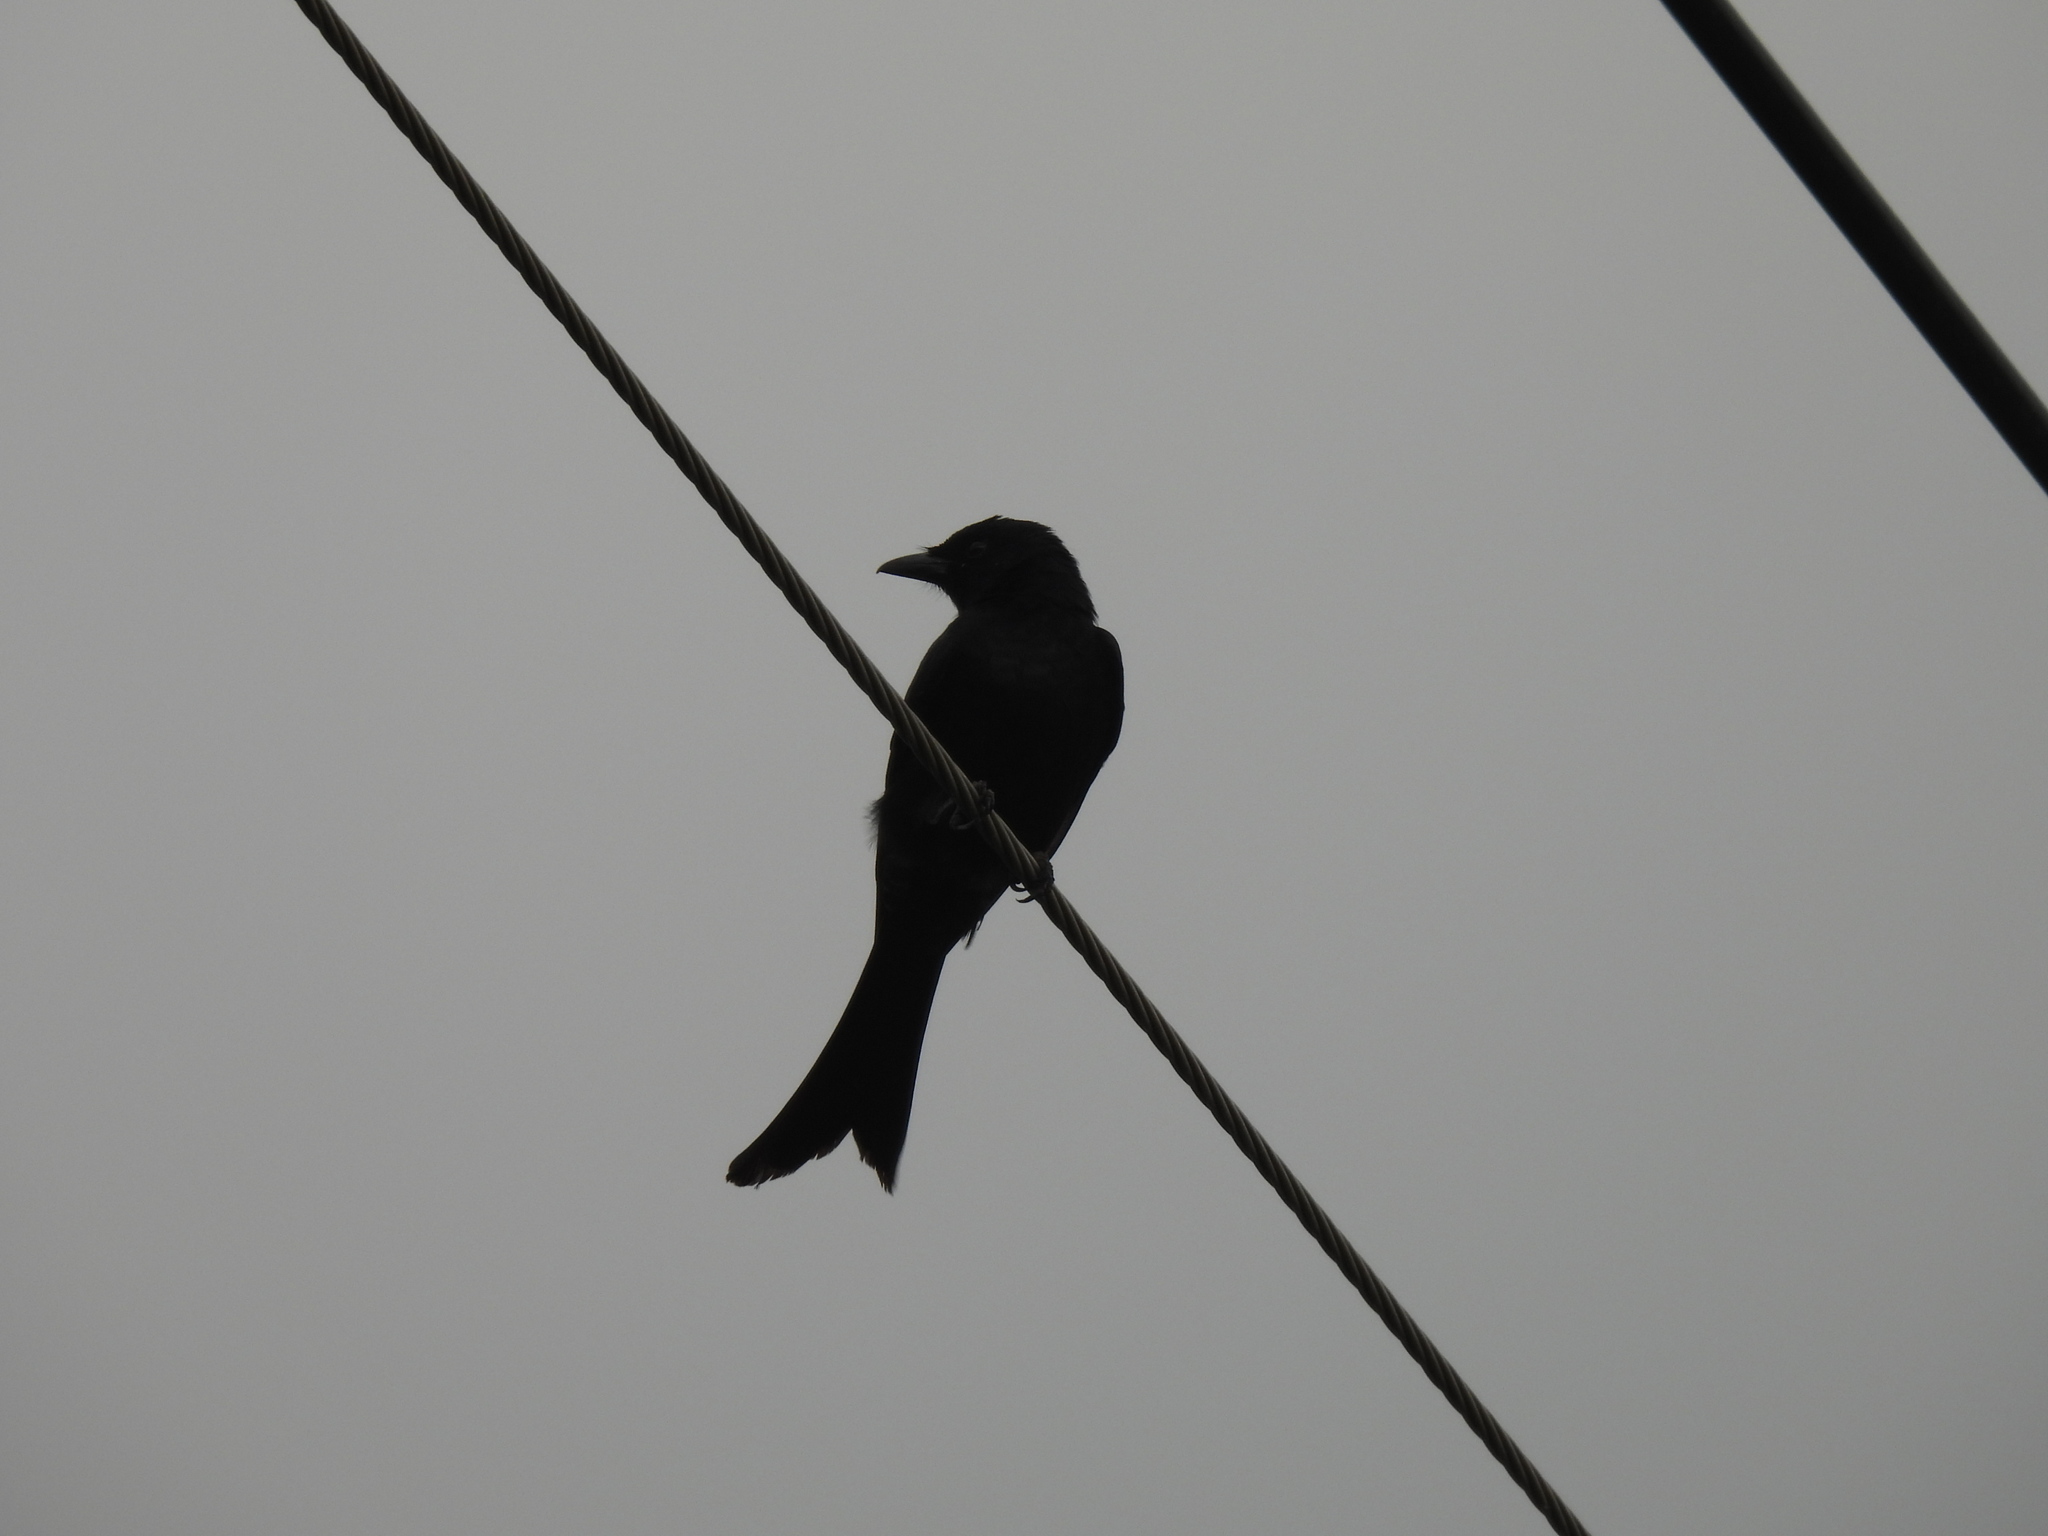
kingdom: Animalia
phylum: Chordata
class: Aves
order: Passeriformes
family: Dicruridae
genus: Dicrurus
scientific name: Dicrurus macrocercus
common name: Black drongo
